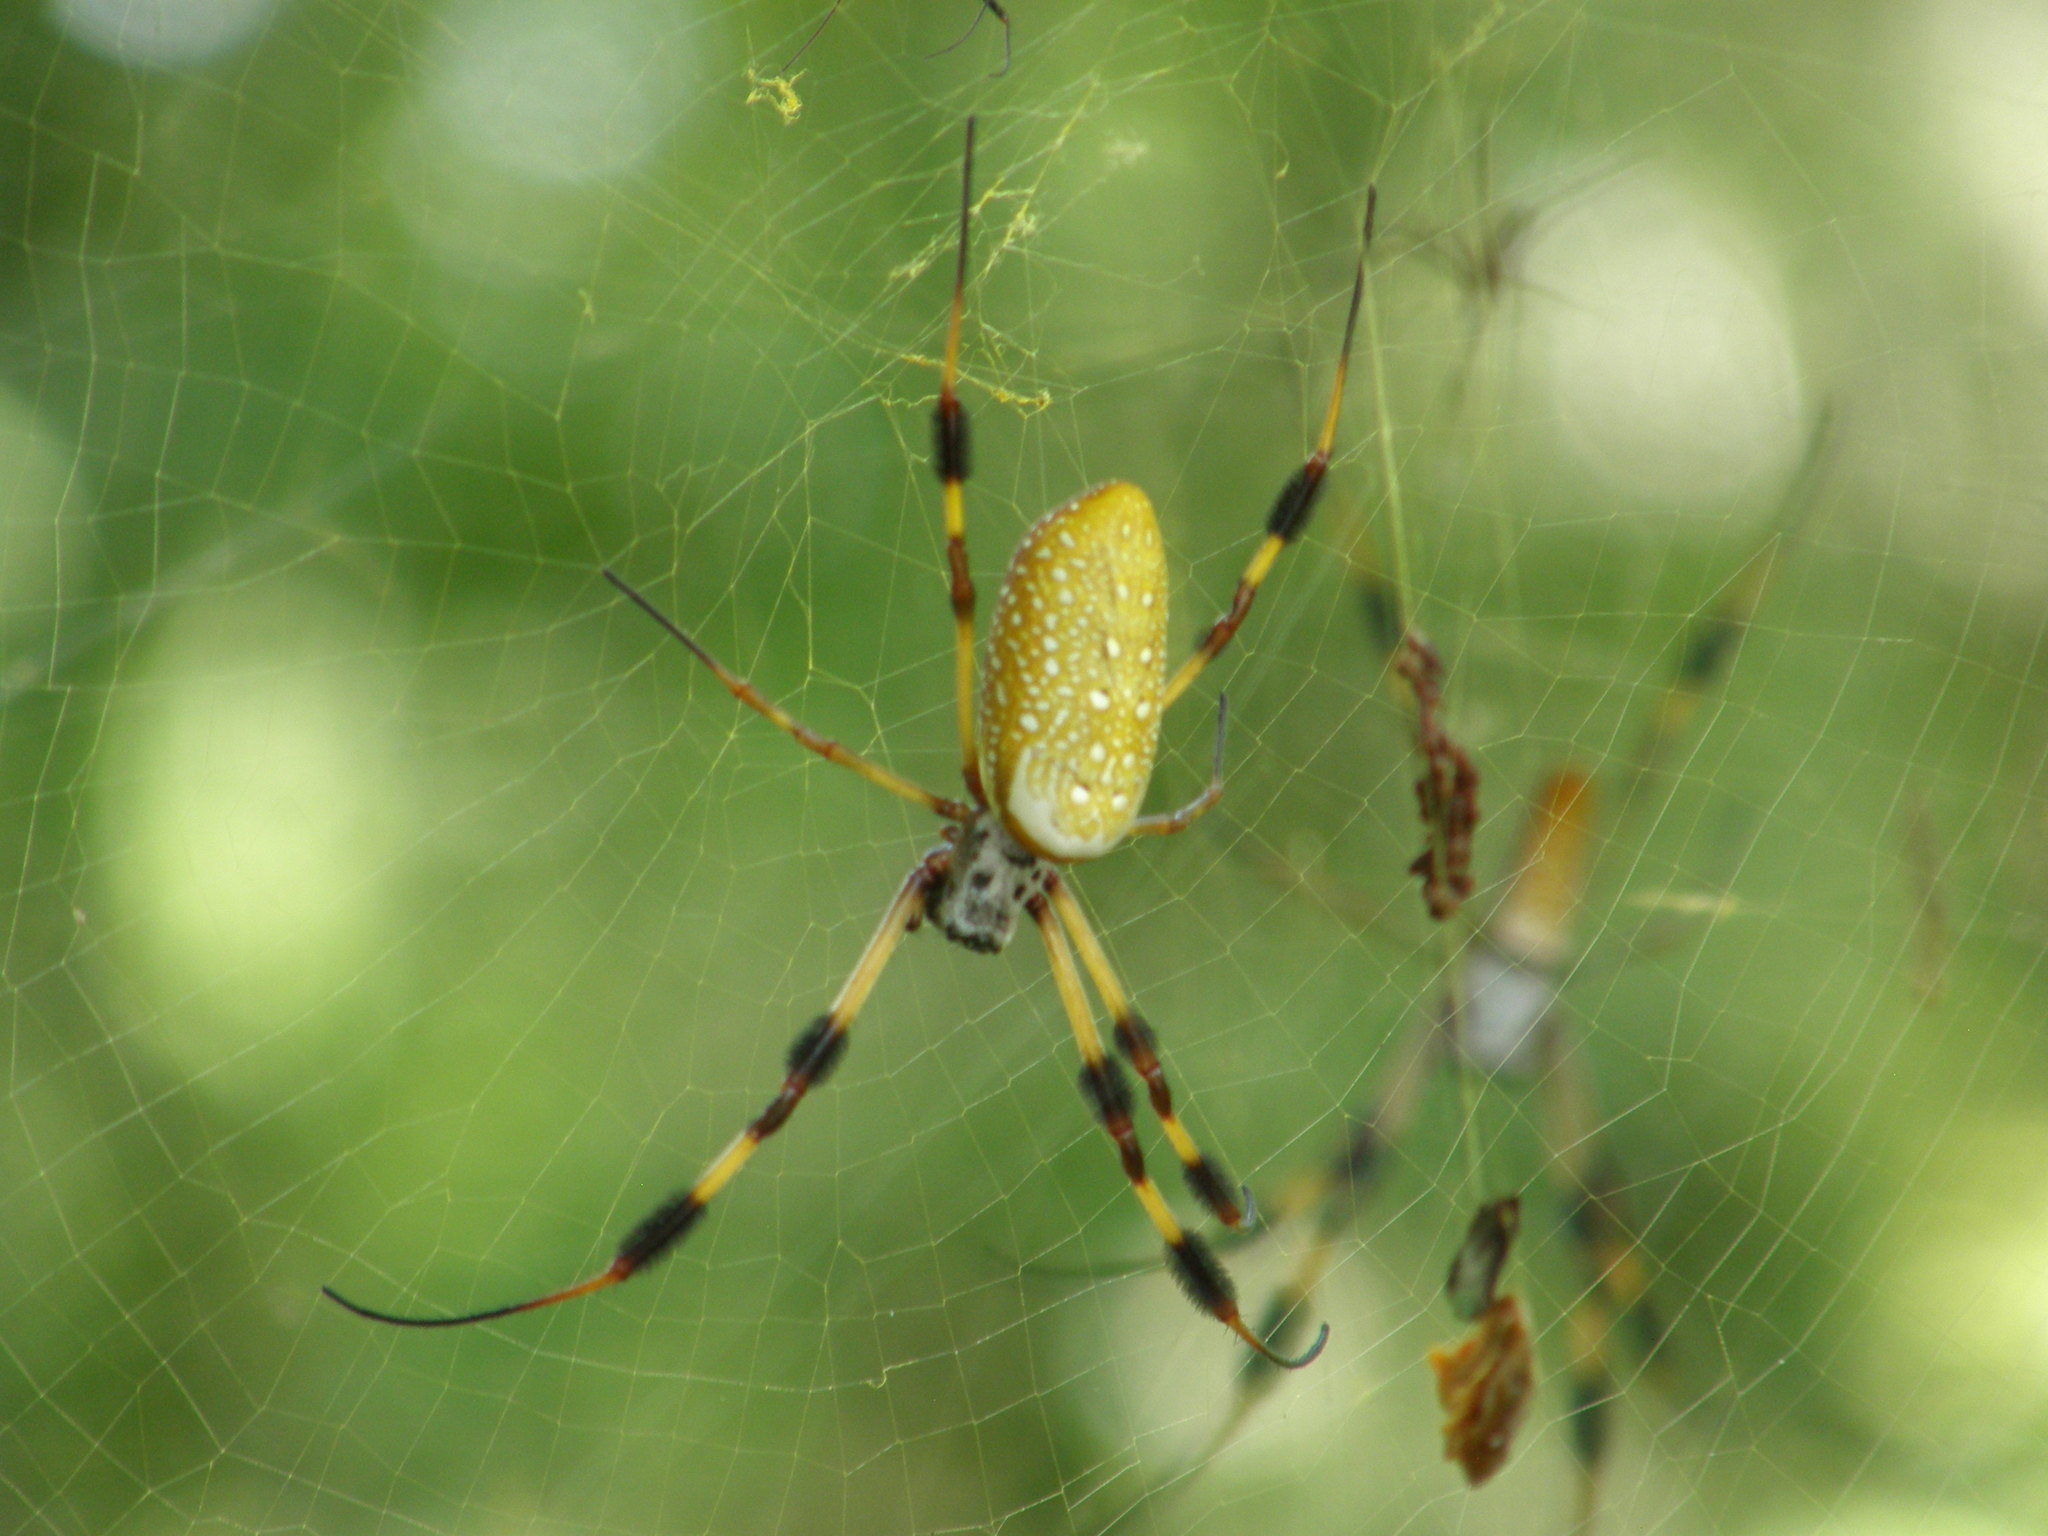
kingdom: Animalia
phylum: Arthropoda
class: Arachnida
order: Araneae
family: Araneidae
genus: Trichonephila
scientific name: Trichonephila clavipes
